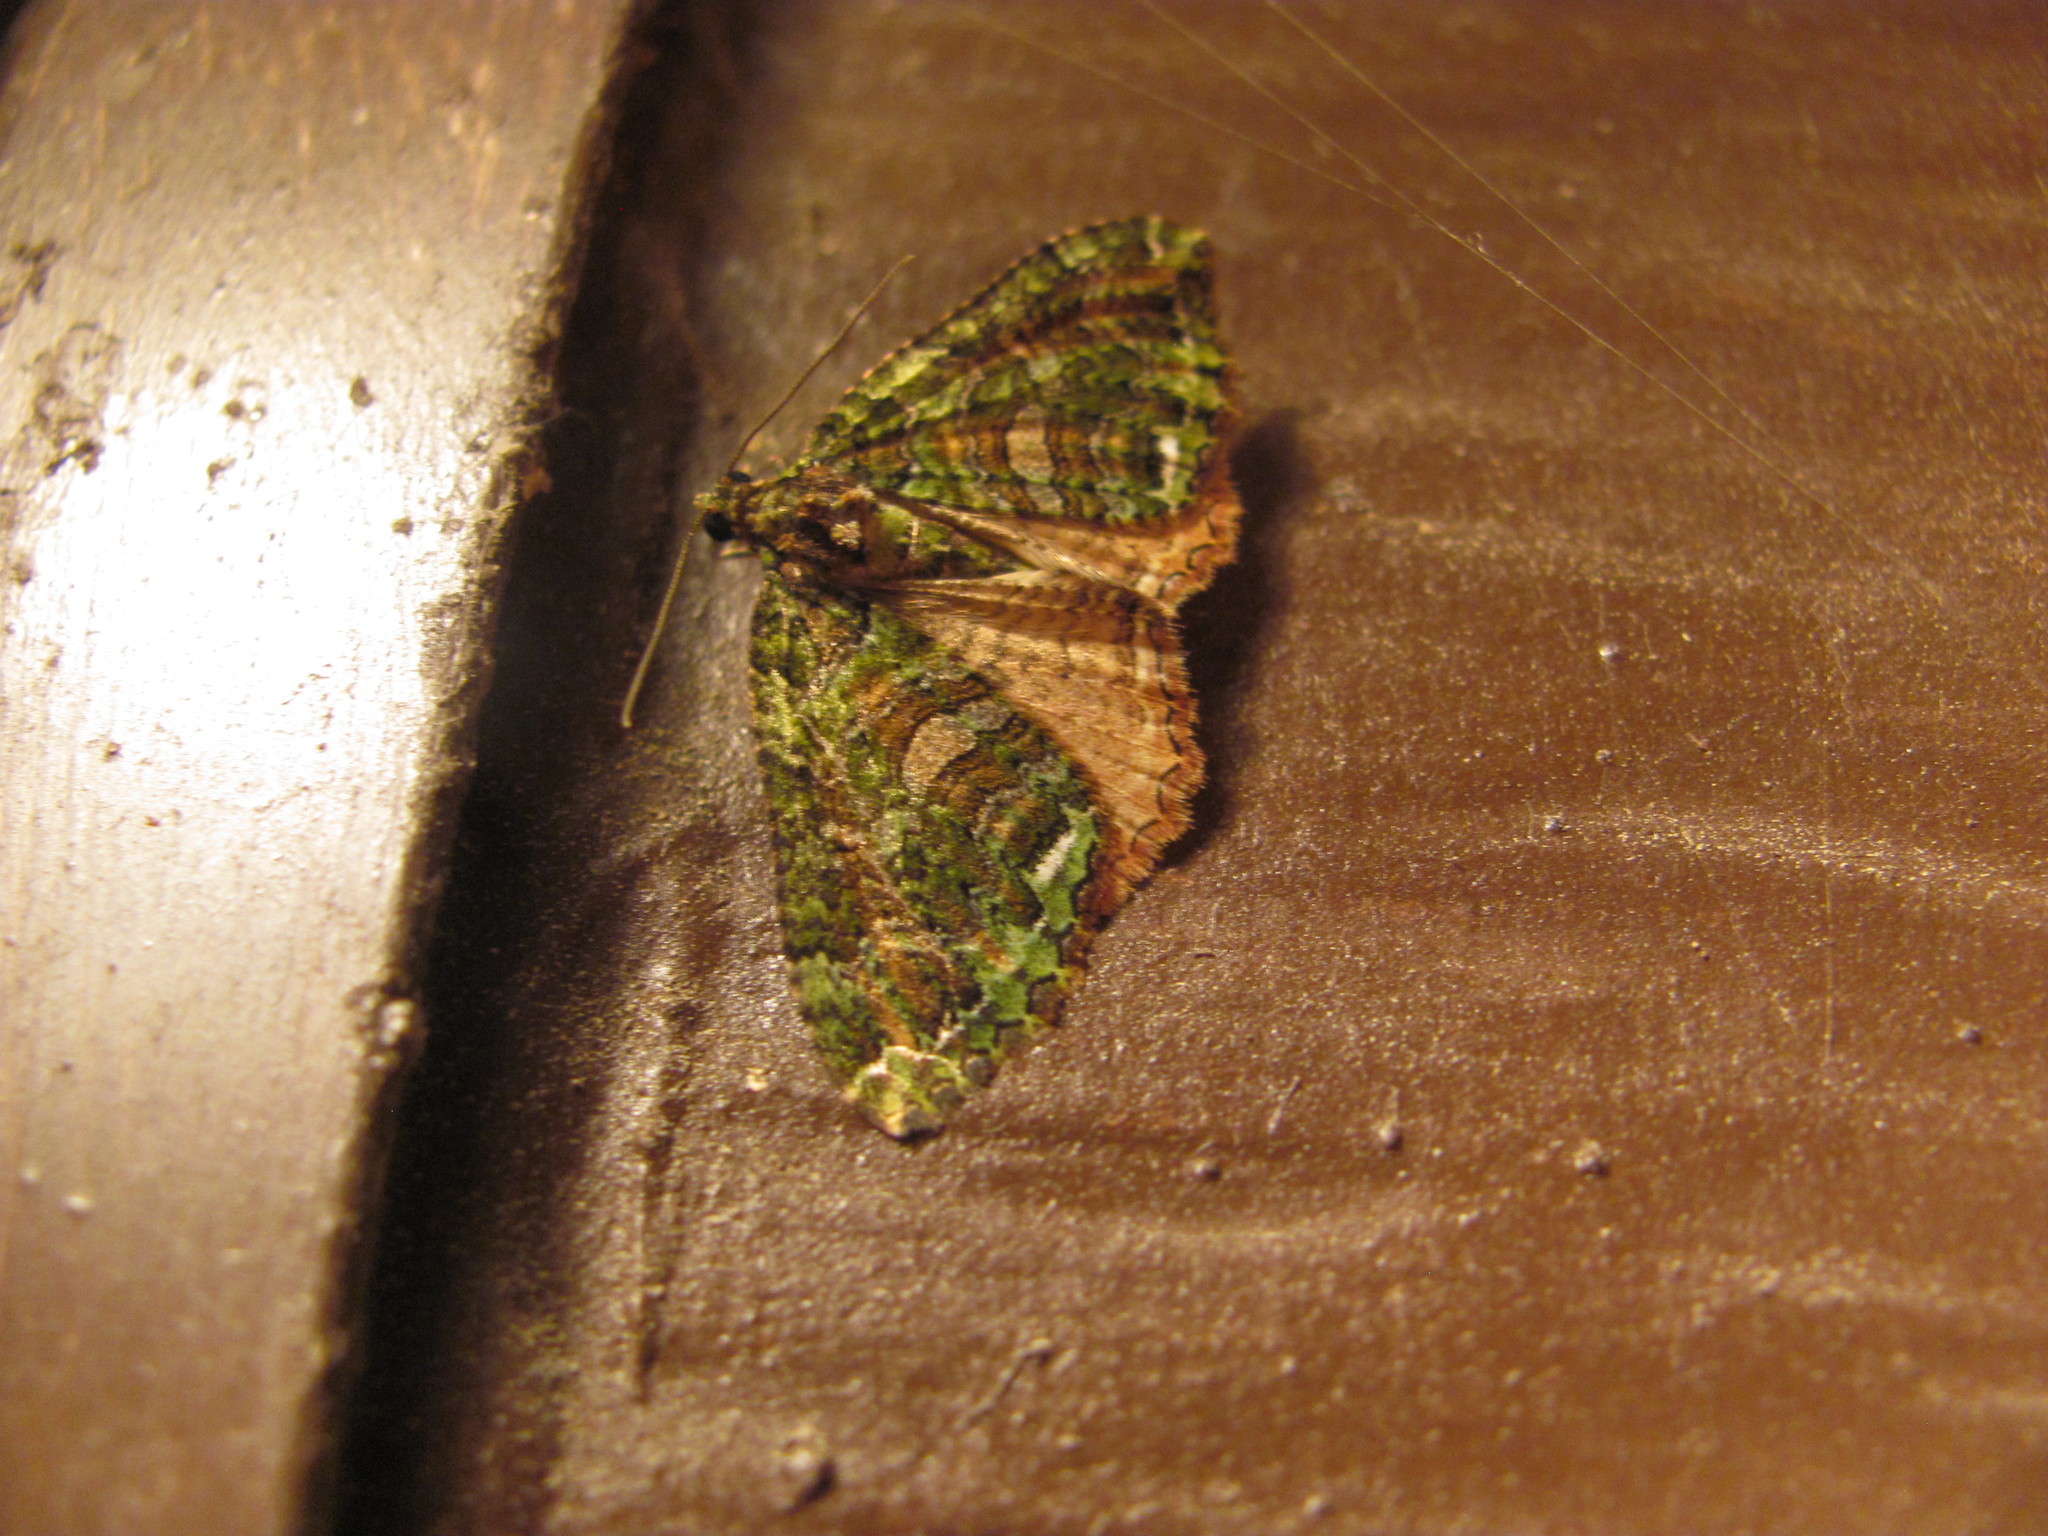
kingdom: Animalia
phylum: Arthropoda
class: Insecta
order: Lepidoptera
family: Geometridae
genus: Austrocidaria
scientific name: Austrocidaria similata
